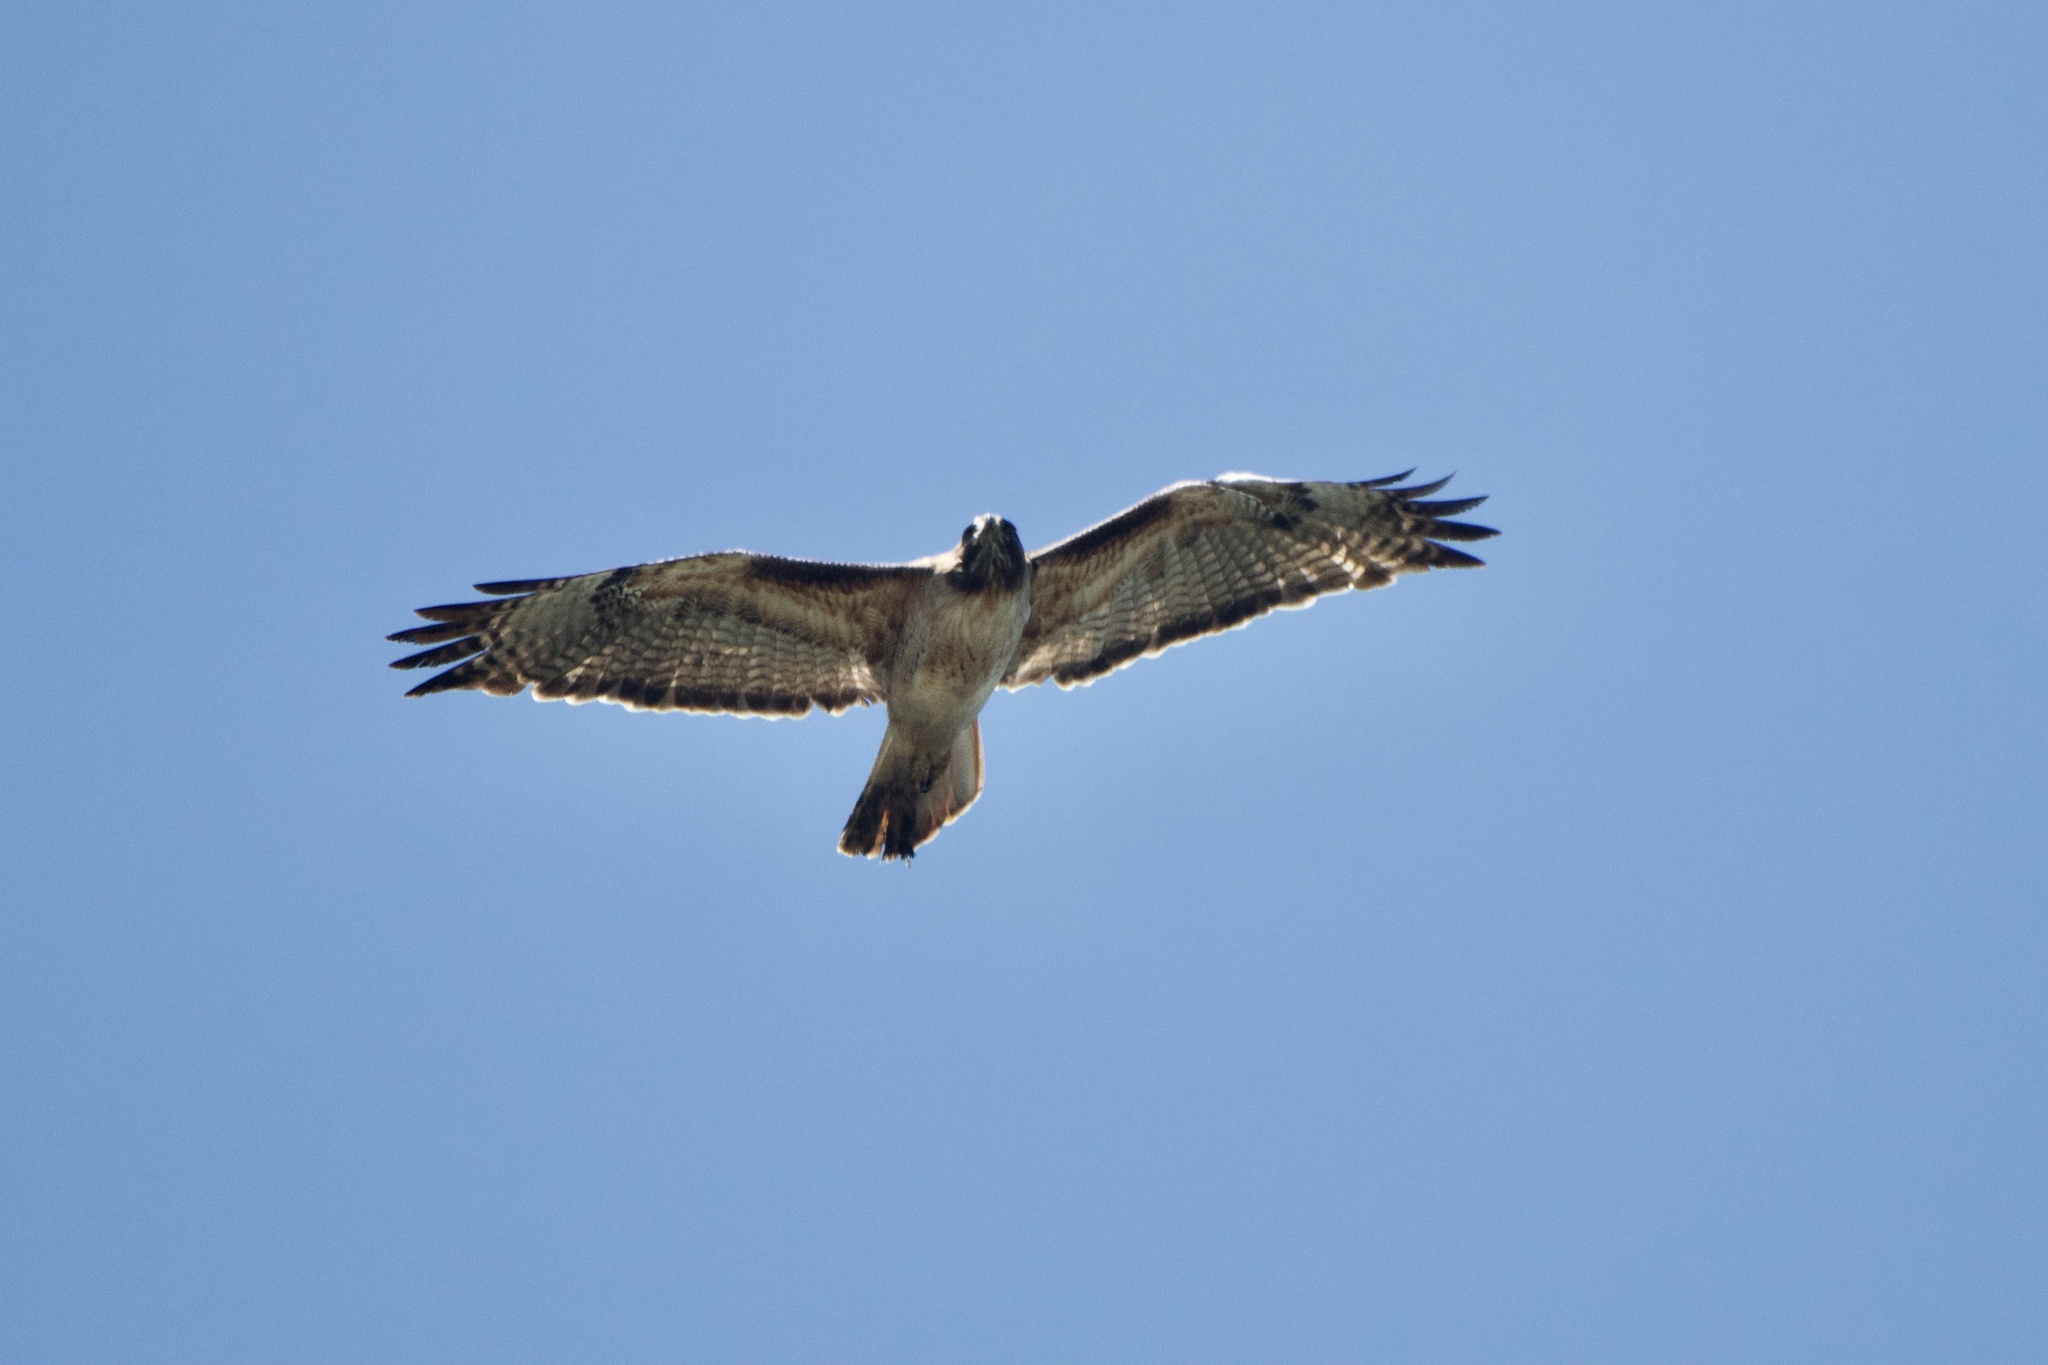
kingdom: Animalia
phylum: Chordata
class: Aves
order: Accipitriformes
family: Accipitridae
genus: Buteo
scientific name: Buteo jamaicensis
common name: Red-tailed hawk
